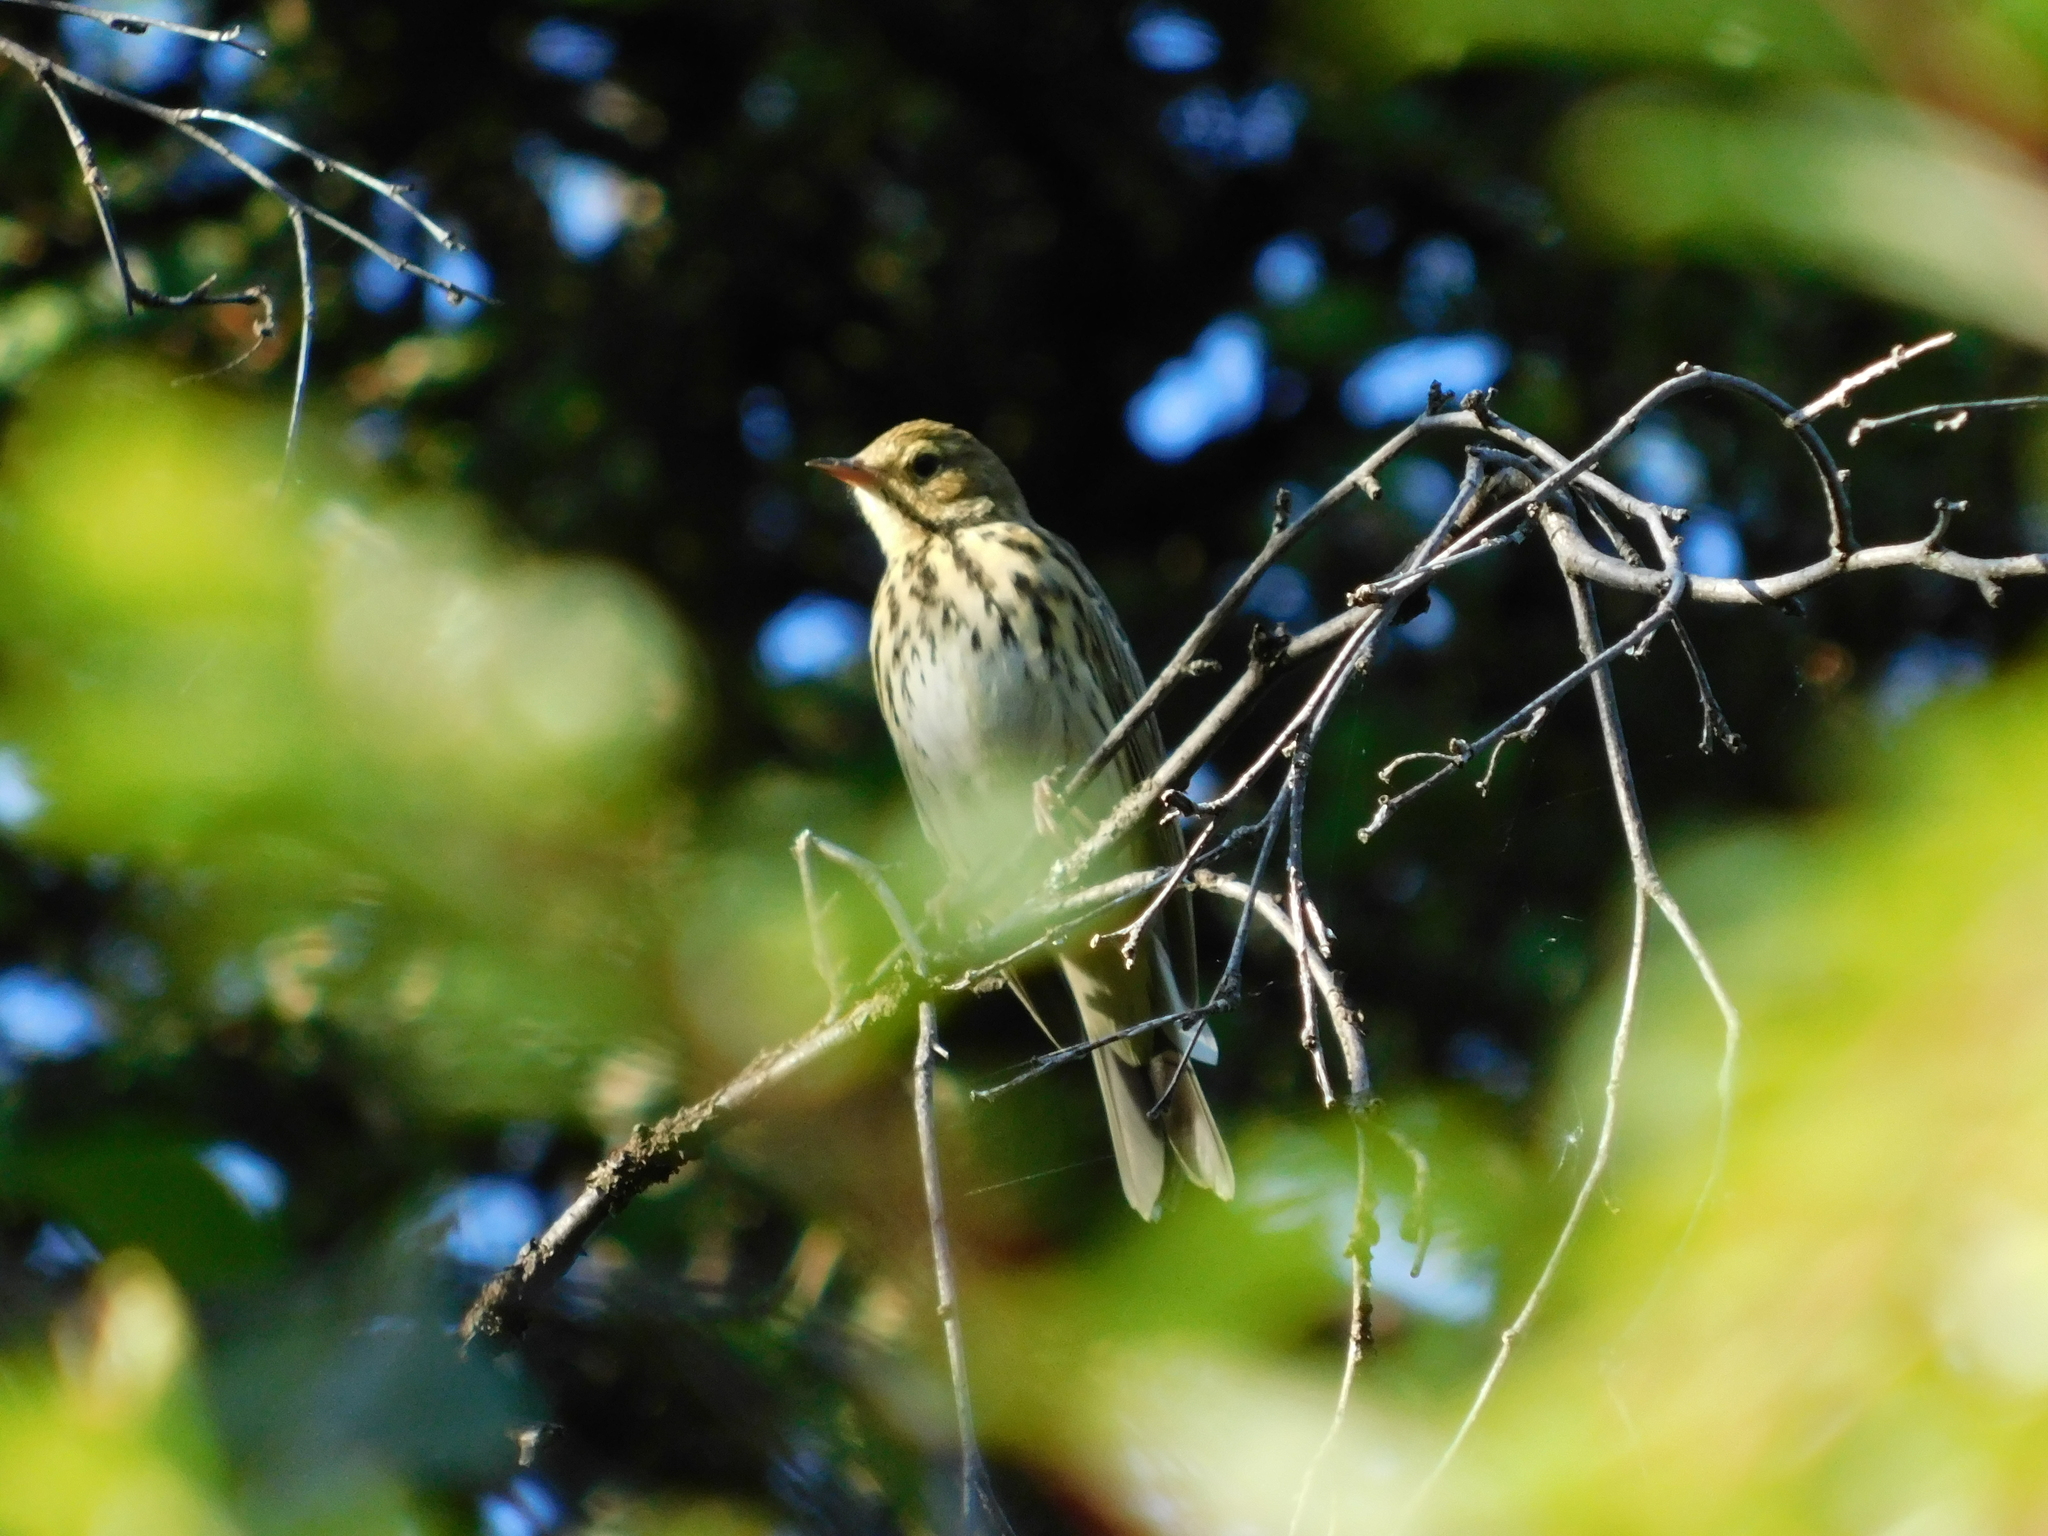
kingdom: Animalia
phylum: Chordata
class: Aves
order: Passeriformes
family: Motacillidae
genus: Anthus
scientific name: Anthus trivialis
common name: Tree pipit
